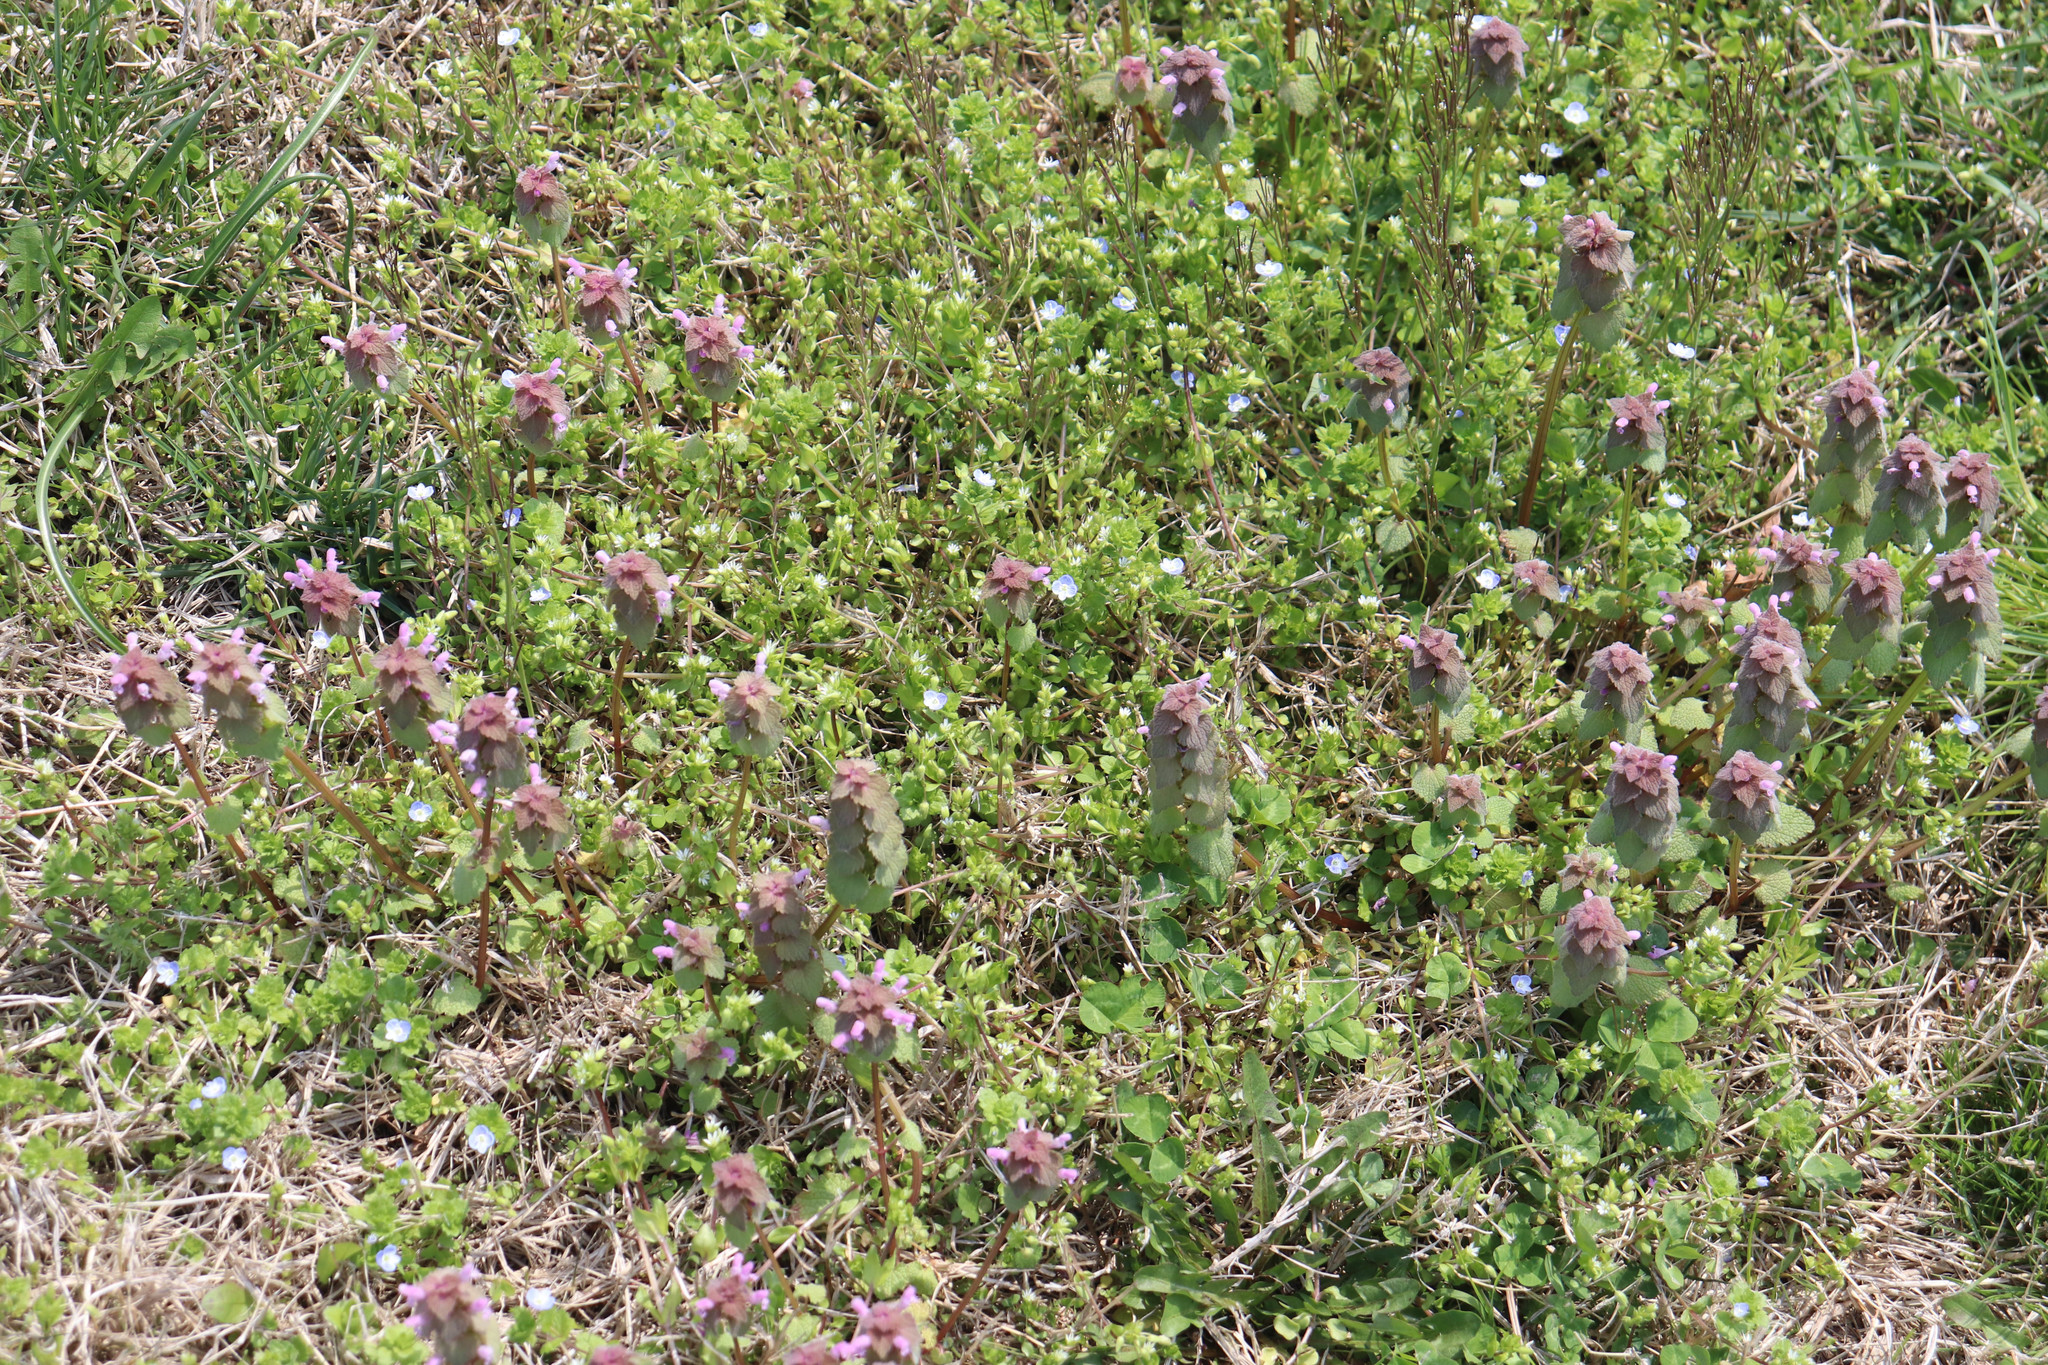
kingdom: Plantae
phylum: Tracheophyta
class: Magnoliopsida
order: Lamiales
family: Lamiaceae
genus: Lamium
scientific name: Lamium purpureum
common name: Red dead-nettle
